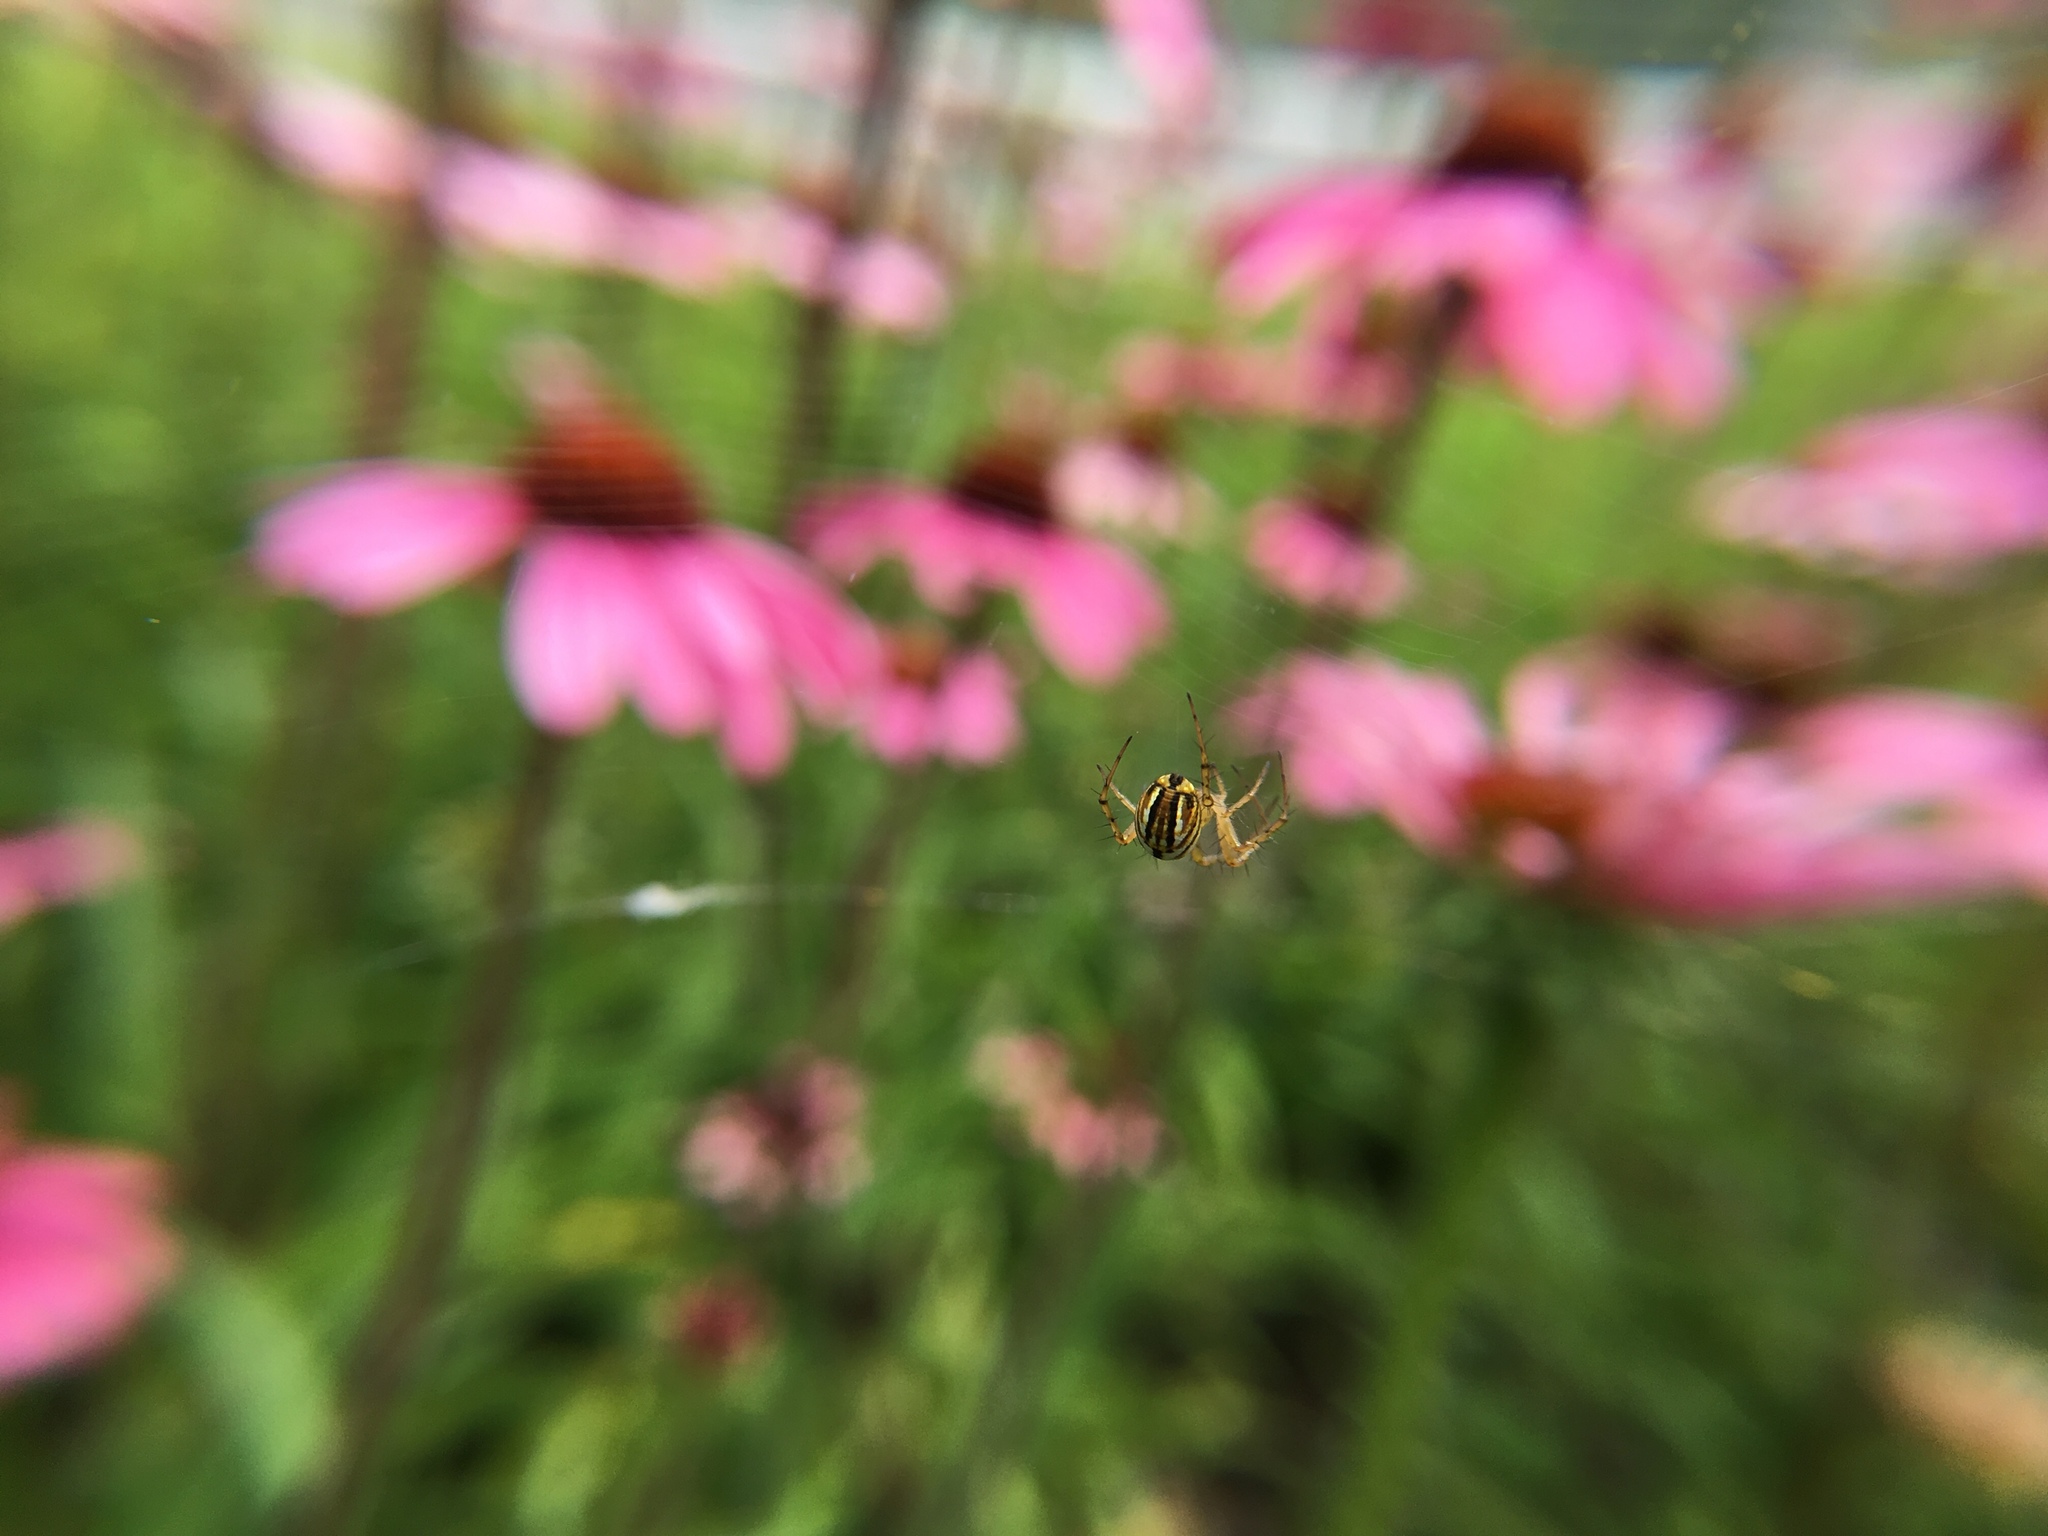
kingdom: Animalia
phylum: Arthropoda
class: Arachnida
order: Araneae
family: Araneidae
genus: Mangora
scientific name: Mangora gibberosa
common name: Lined orbweaver
